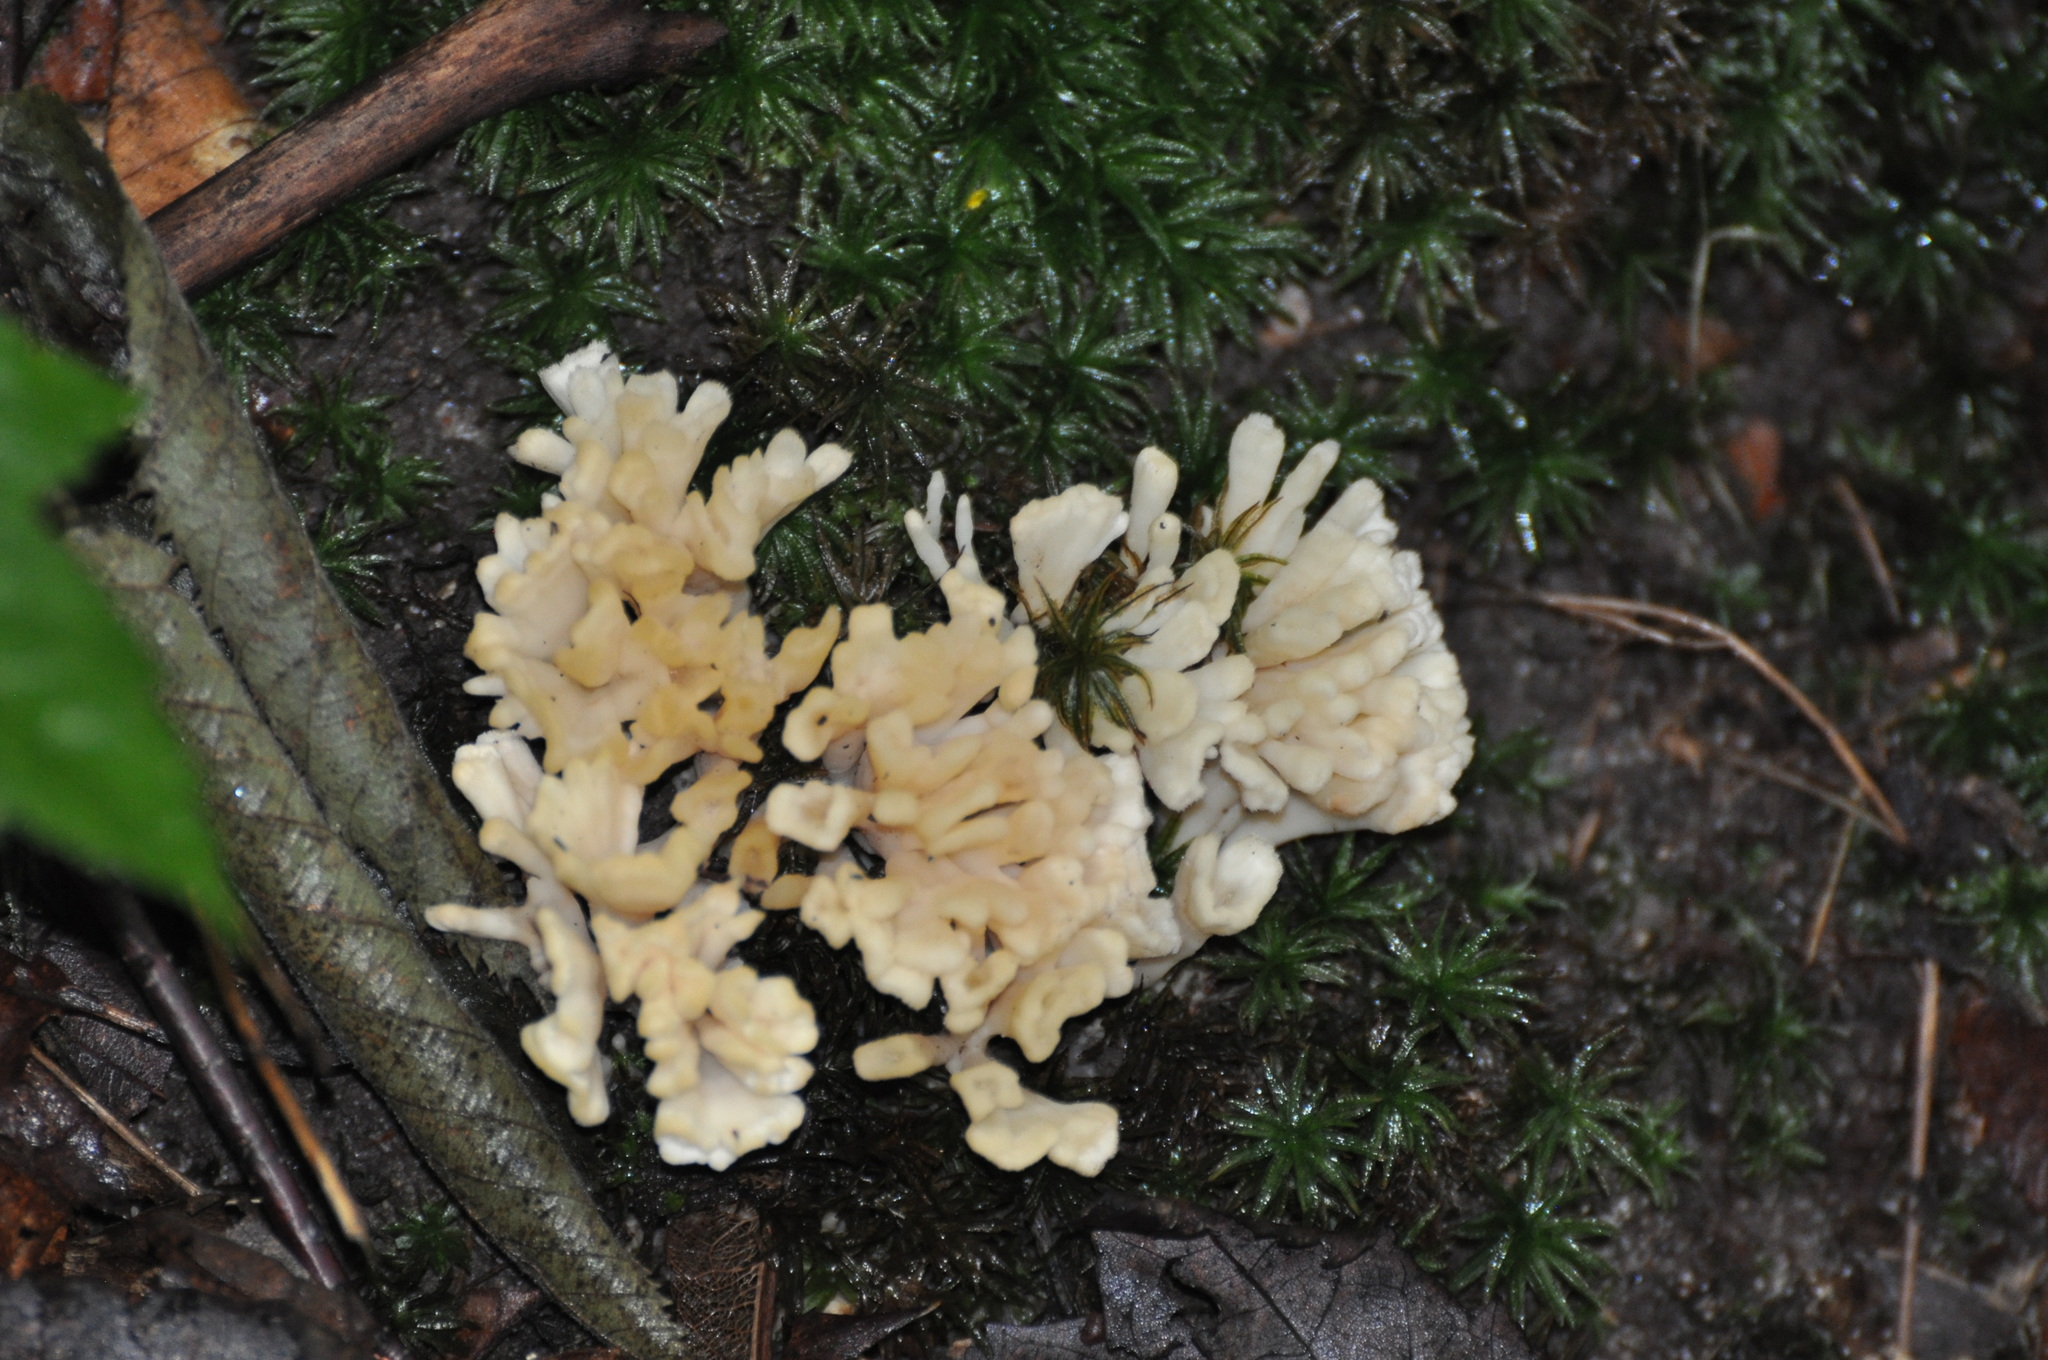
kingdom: Fungi
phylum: Basidiomycota
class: Agaricomycetes
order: Sebacinales
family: Sebacinaceae
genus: Sebacina
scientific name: Sebacina schweinitzii
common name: Jellied false coral fungus
